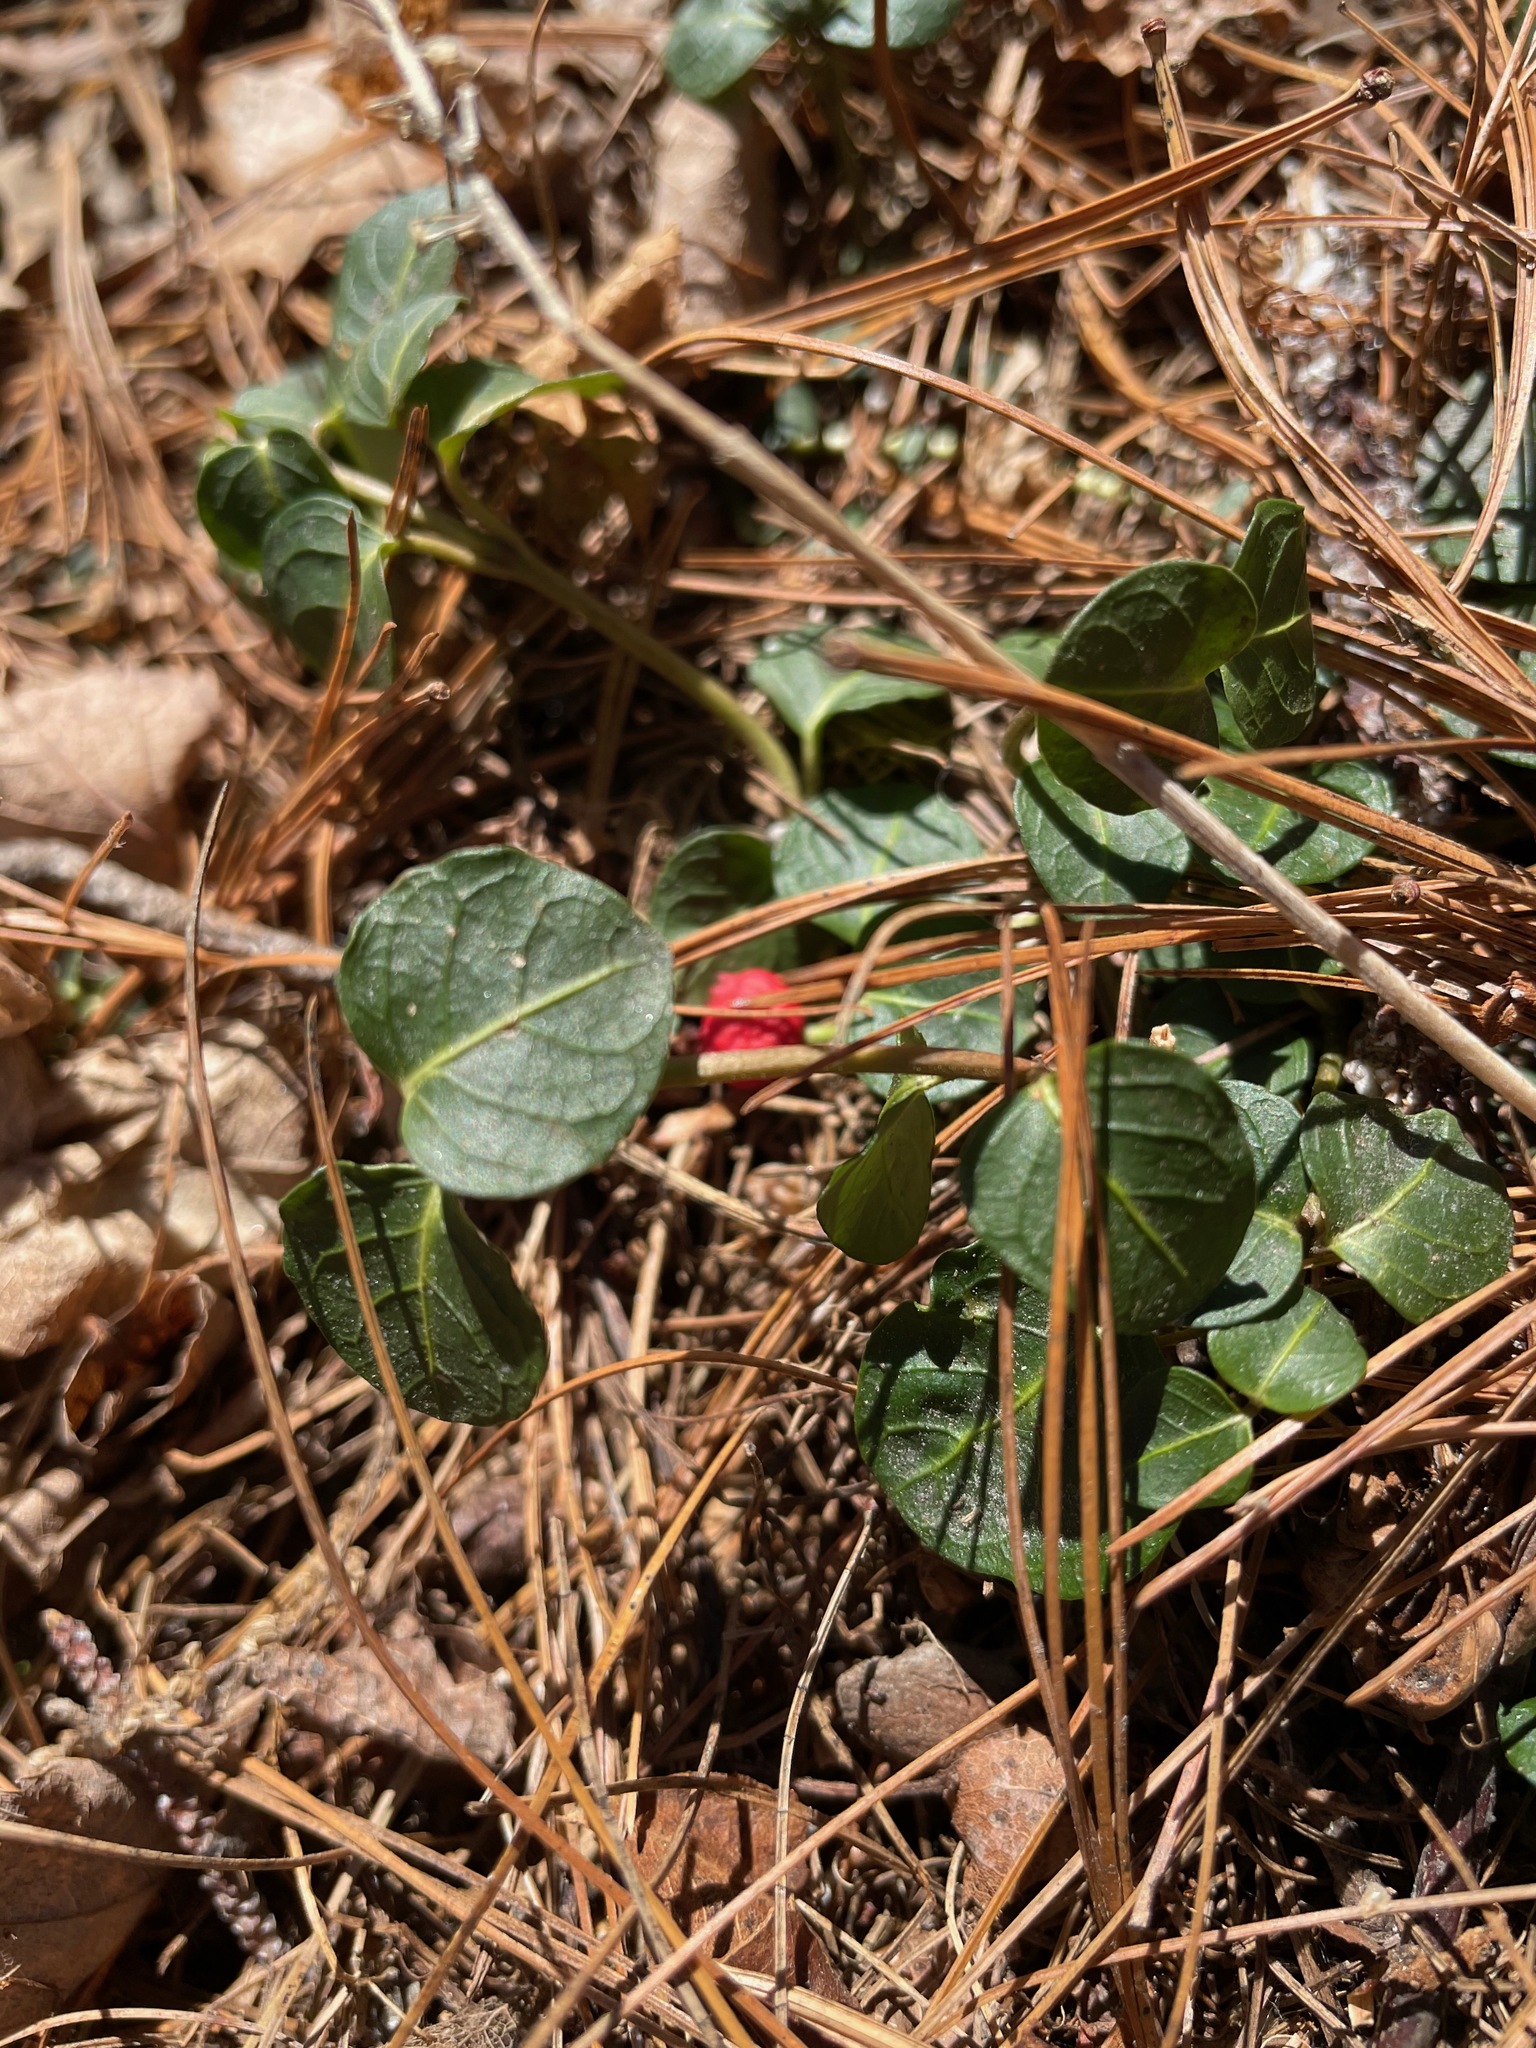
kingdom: Plantae
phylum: Tracheophyta
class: Magnoliopsida
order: Gentianales
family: Rubiaceae
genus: Mitchella
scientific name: Mitchella repens
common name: Partridge-berry
